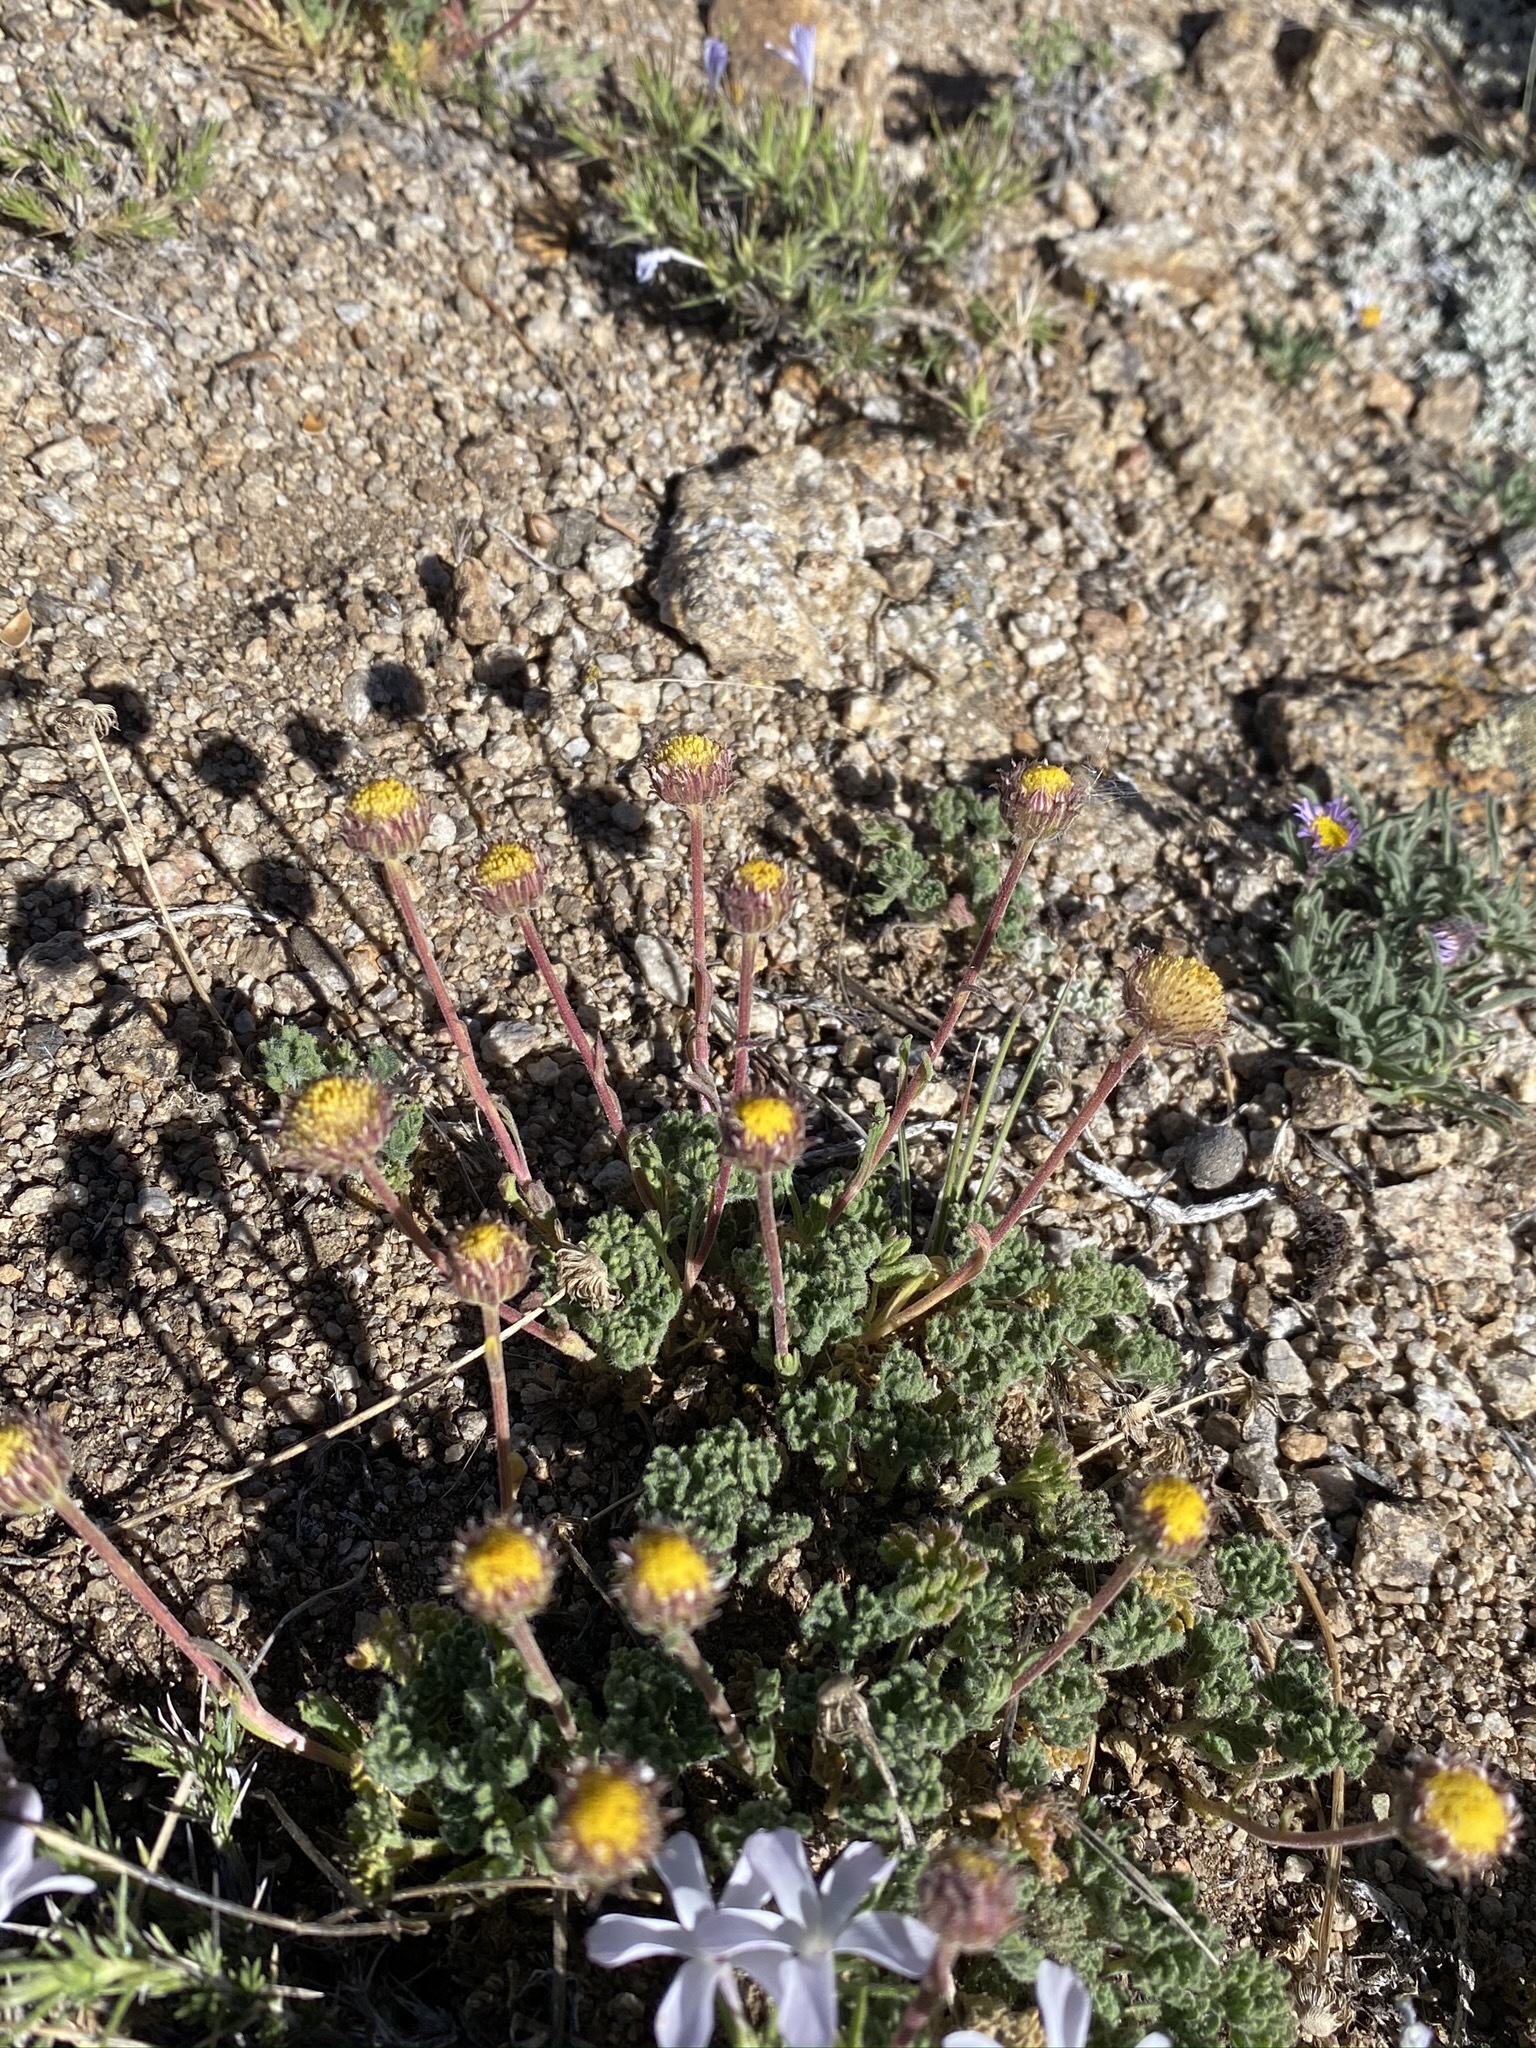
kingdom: Plantae
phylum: Tracheophyta
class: Magnoliopsida
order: Asterales
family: Asteraceae
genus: Erigeron
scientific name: Erigeron compositus
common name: Dwarf mountain fleabane
